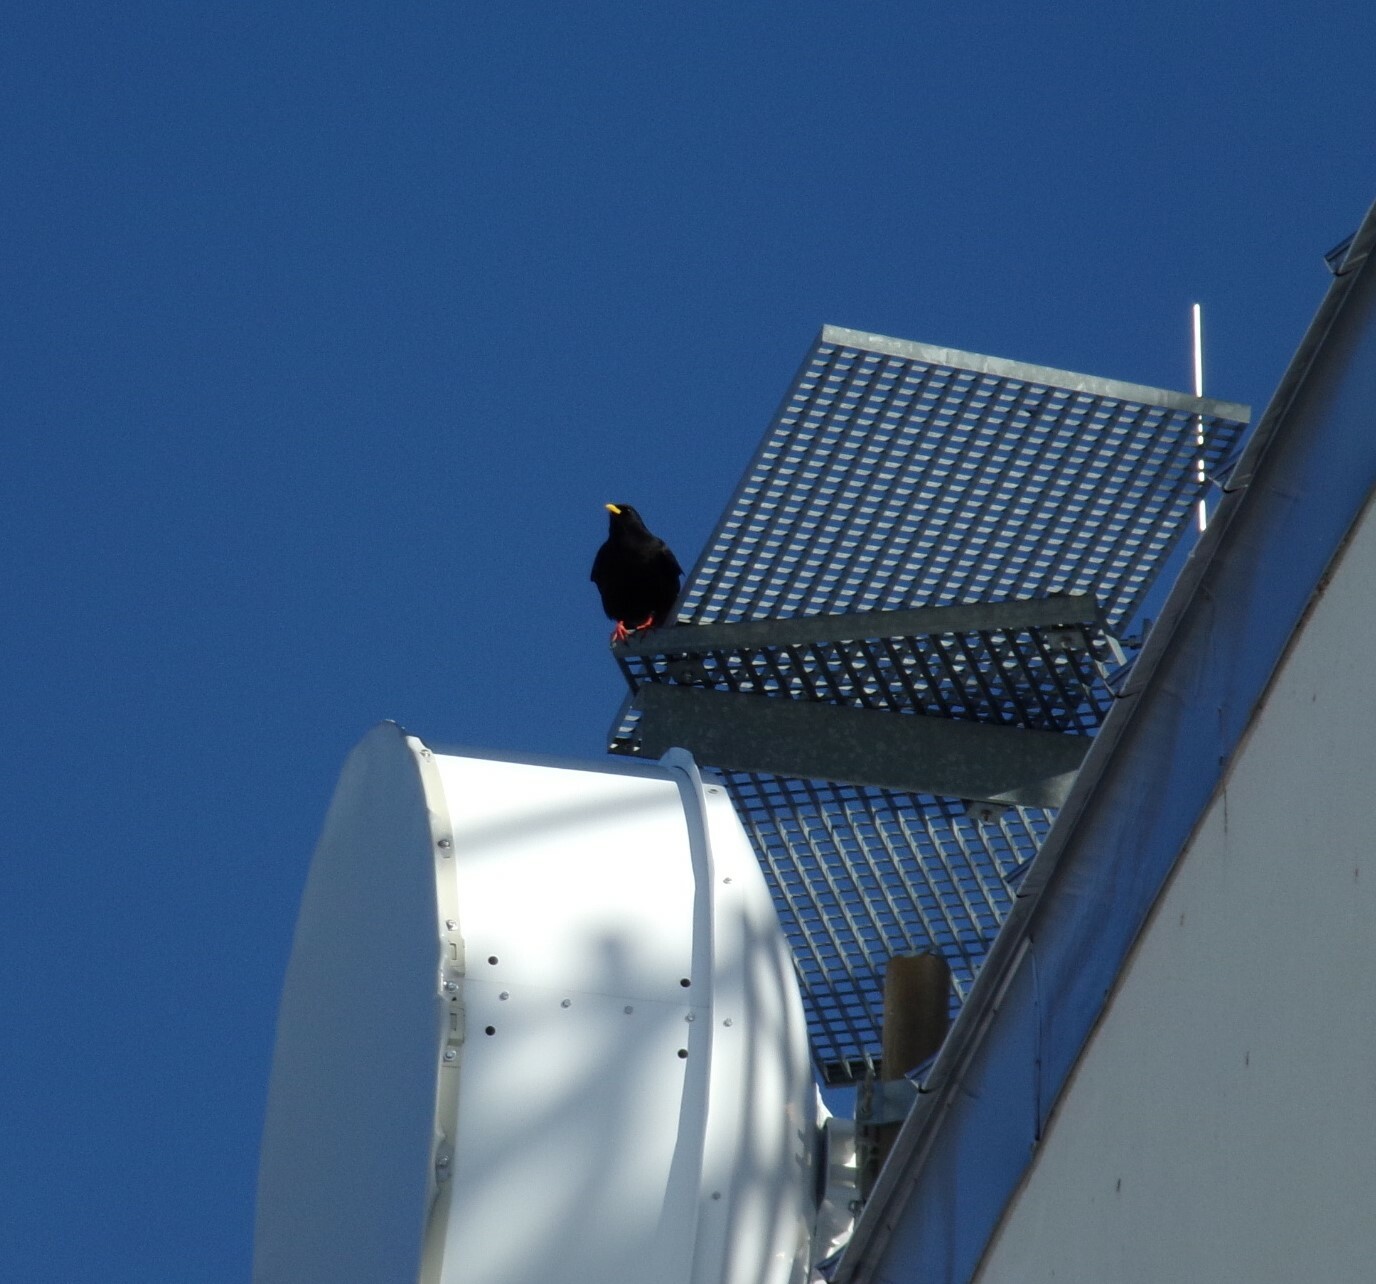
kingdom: Animalia
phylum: Chordata
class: Aves
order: Passeriformes
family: Corvidae
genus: Pyrrhocorax
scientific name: Pyrrhocorax graculus
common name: Alpine chough
